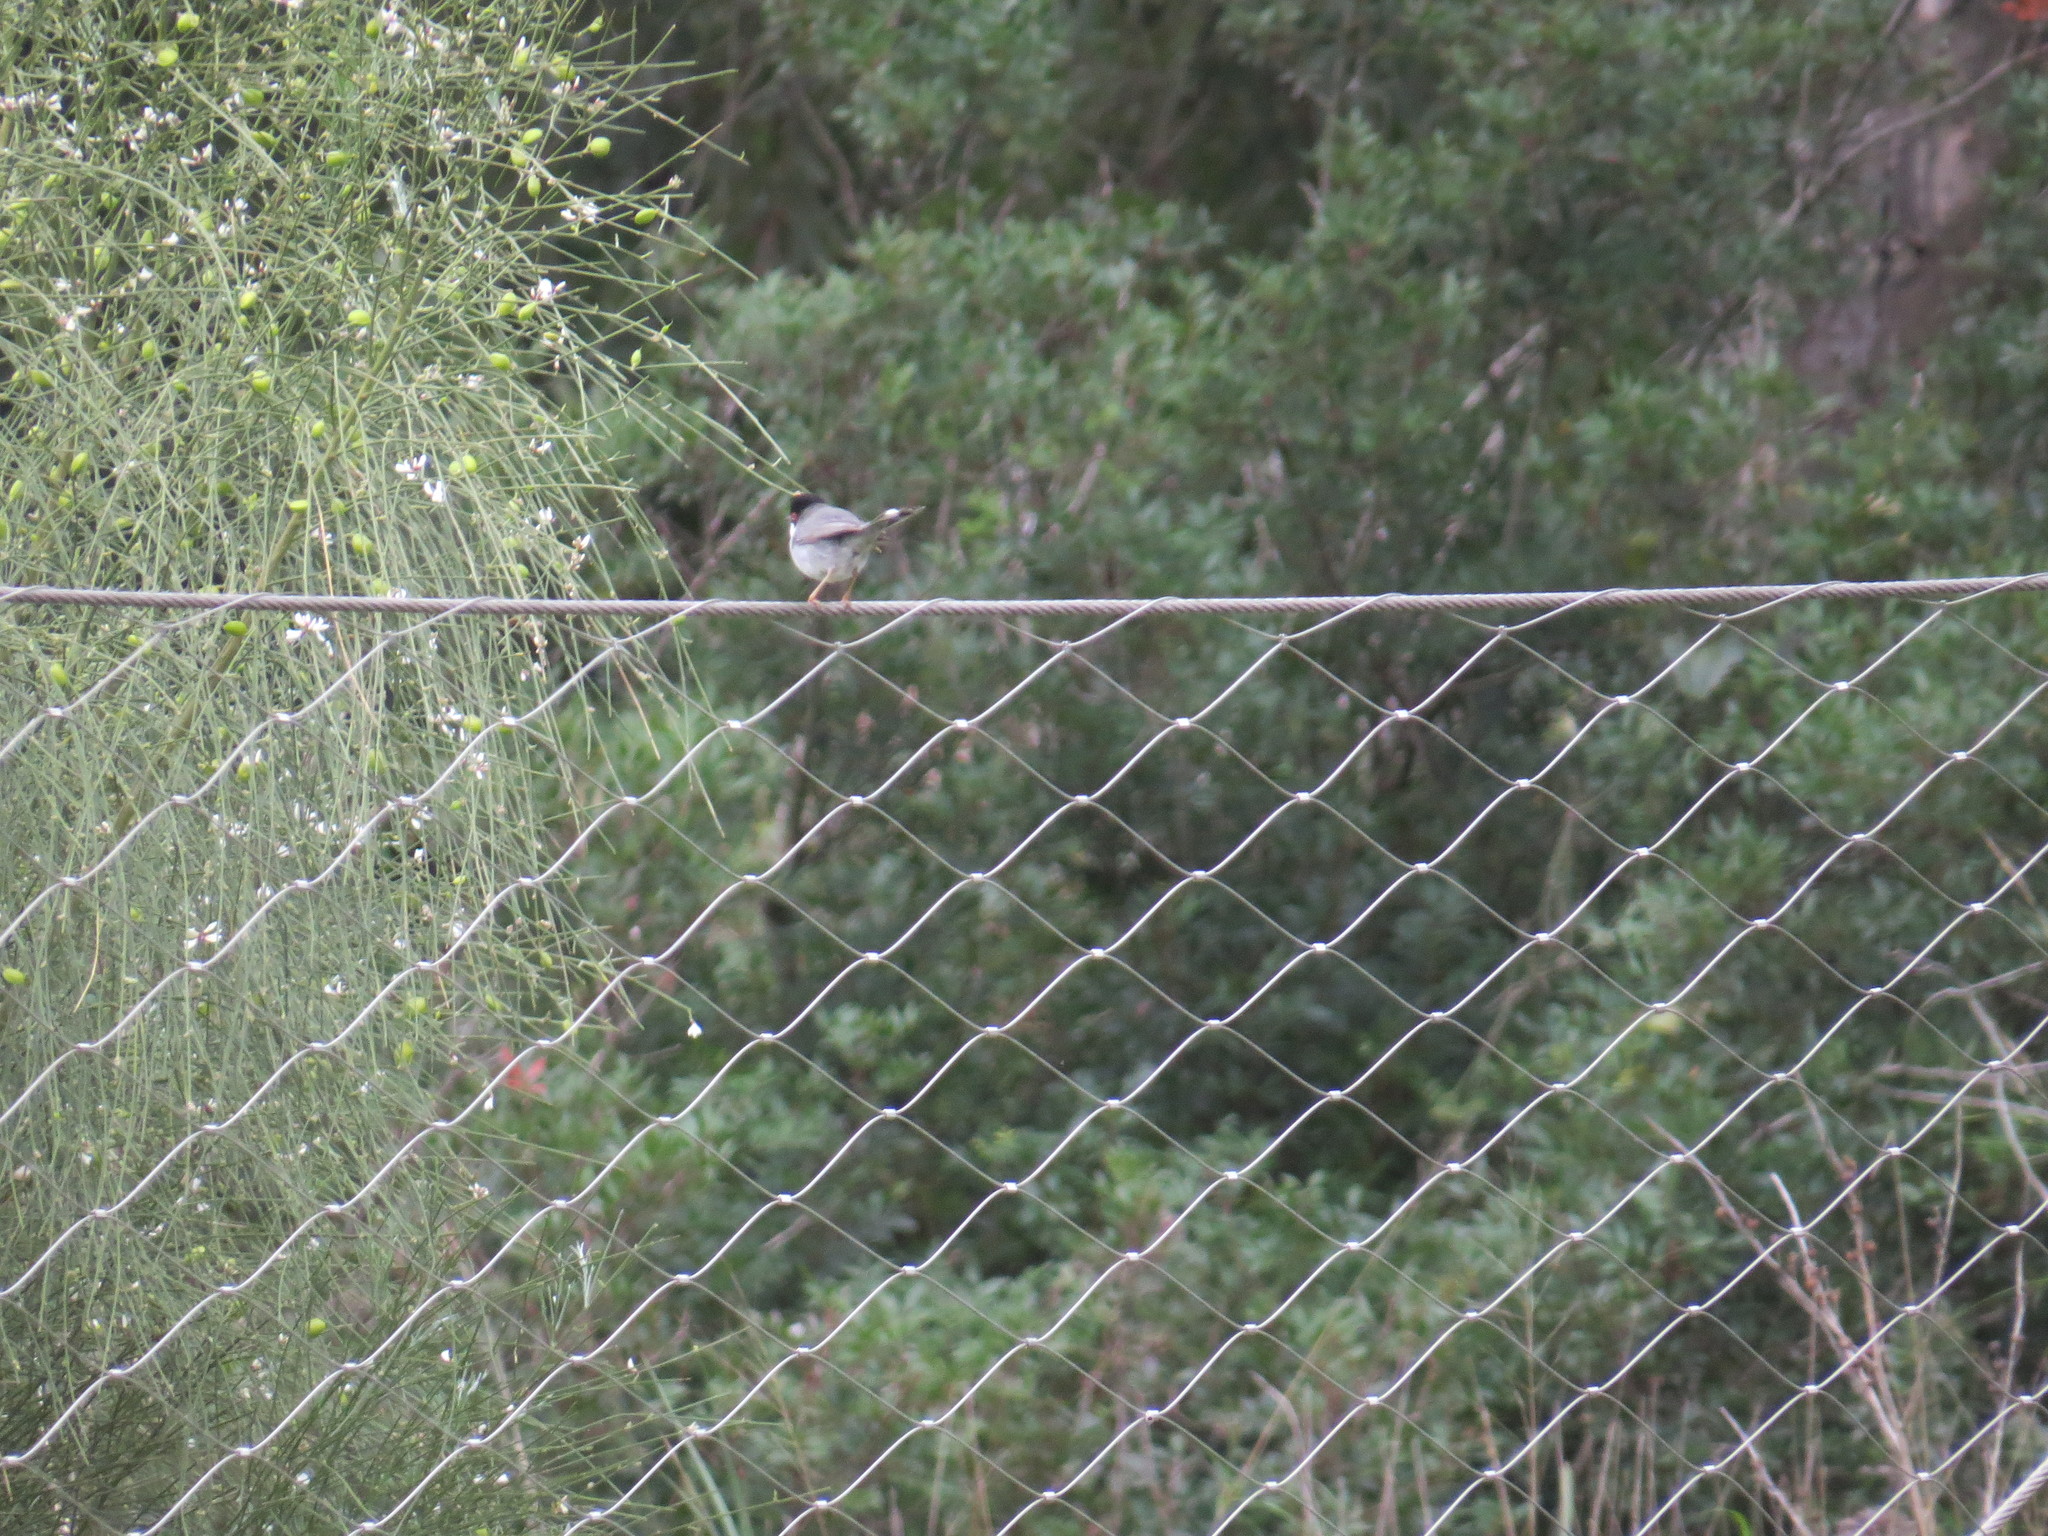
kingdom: Animalia
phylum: Chordata
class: Aves
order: Passeriformes
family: Sylviidae
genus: Curruca
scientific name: Curruca melanocephala
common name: Sardinian warbler
